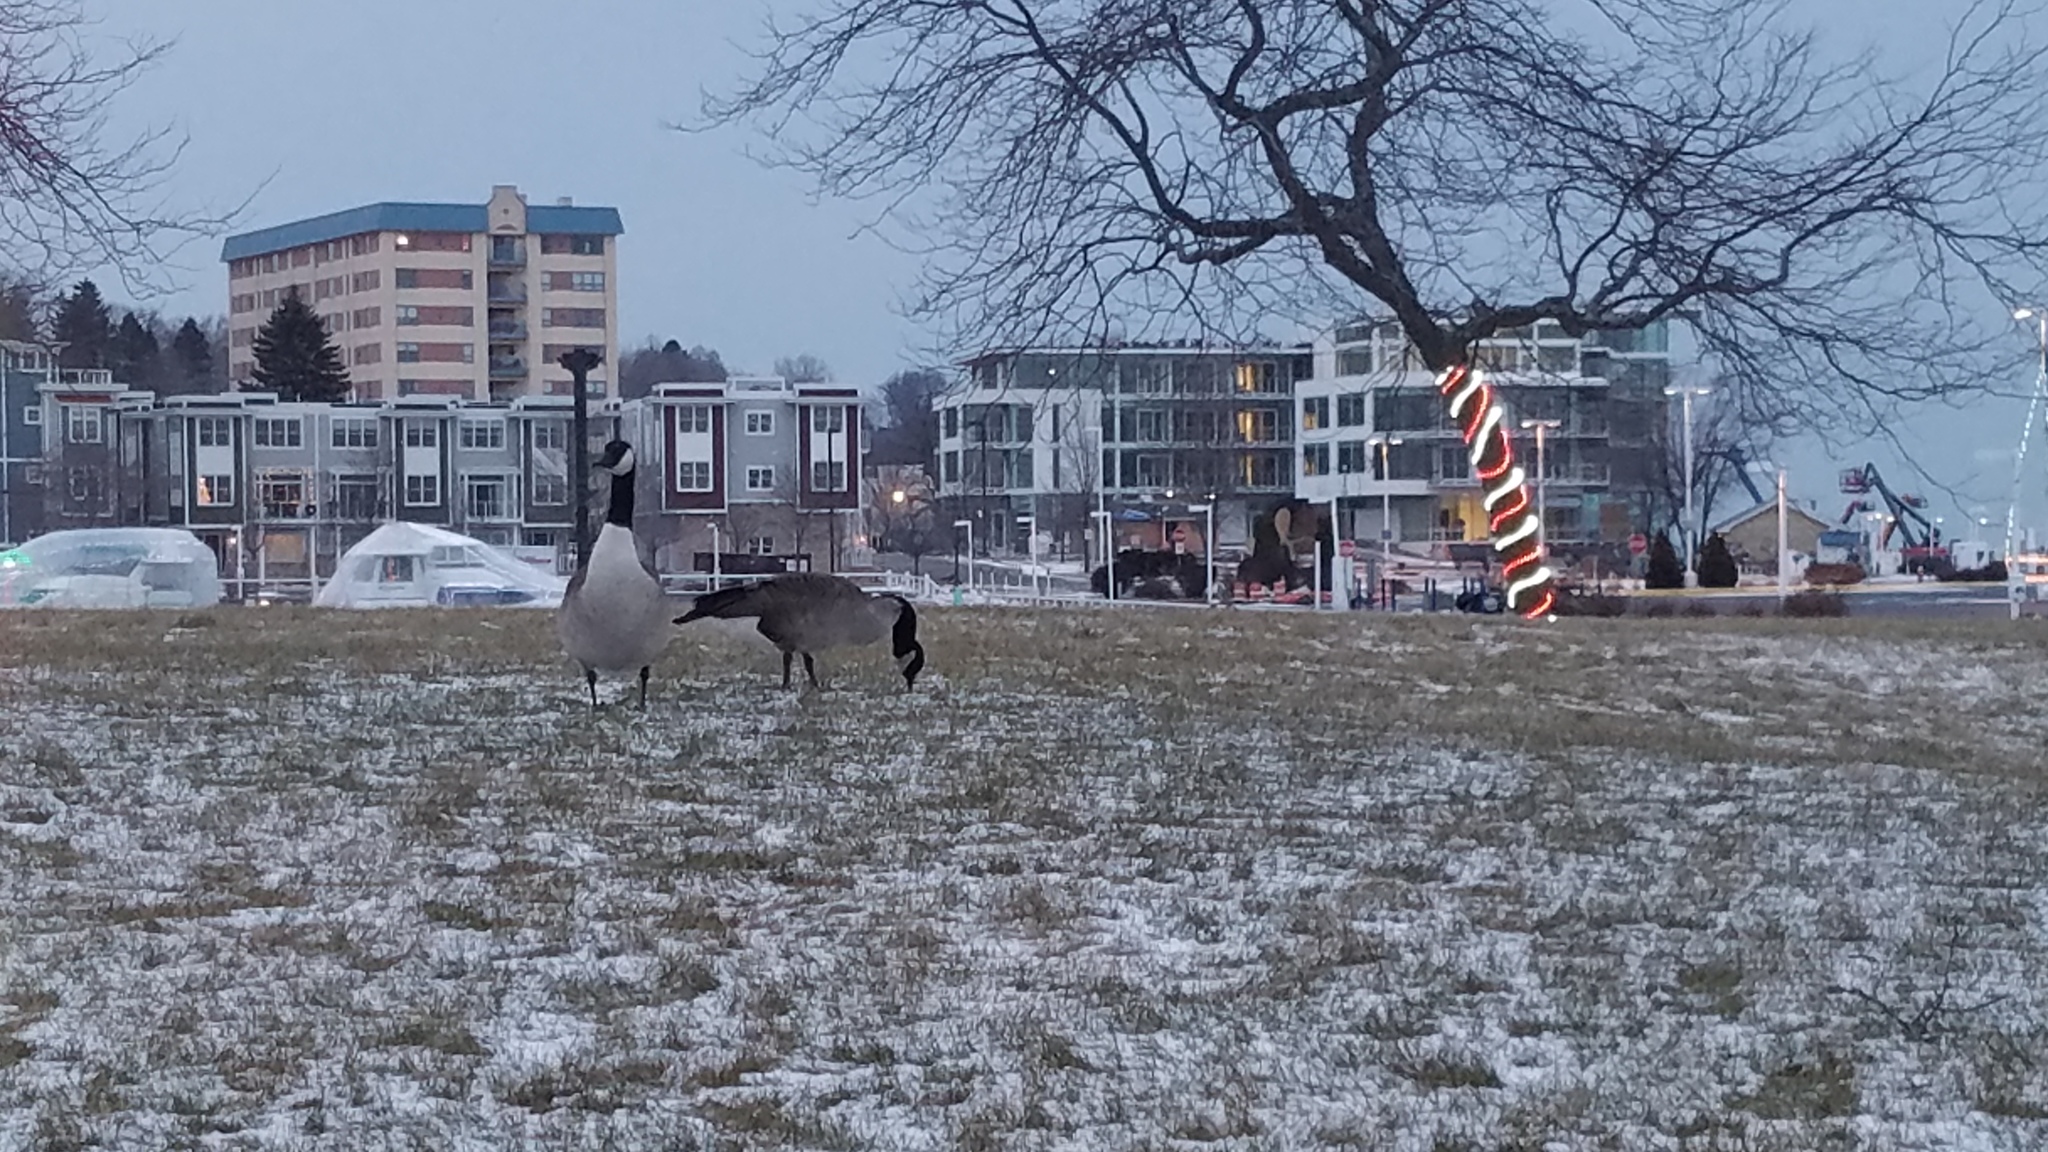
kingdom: Animalia
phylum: Chordata
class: Aves
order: Anseriformes
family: Anatidae
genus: Branta
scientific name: Branta canadensis
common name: Canada goose
